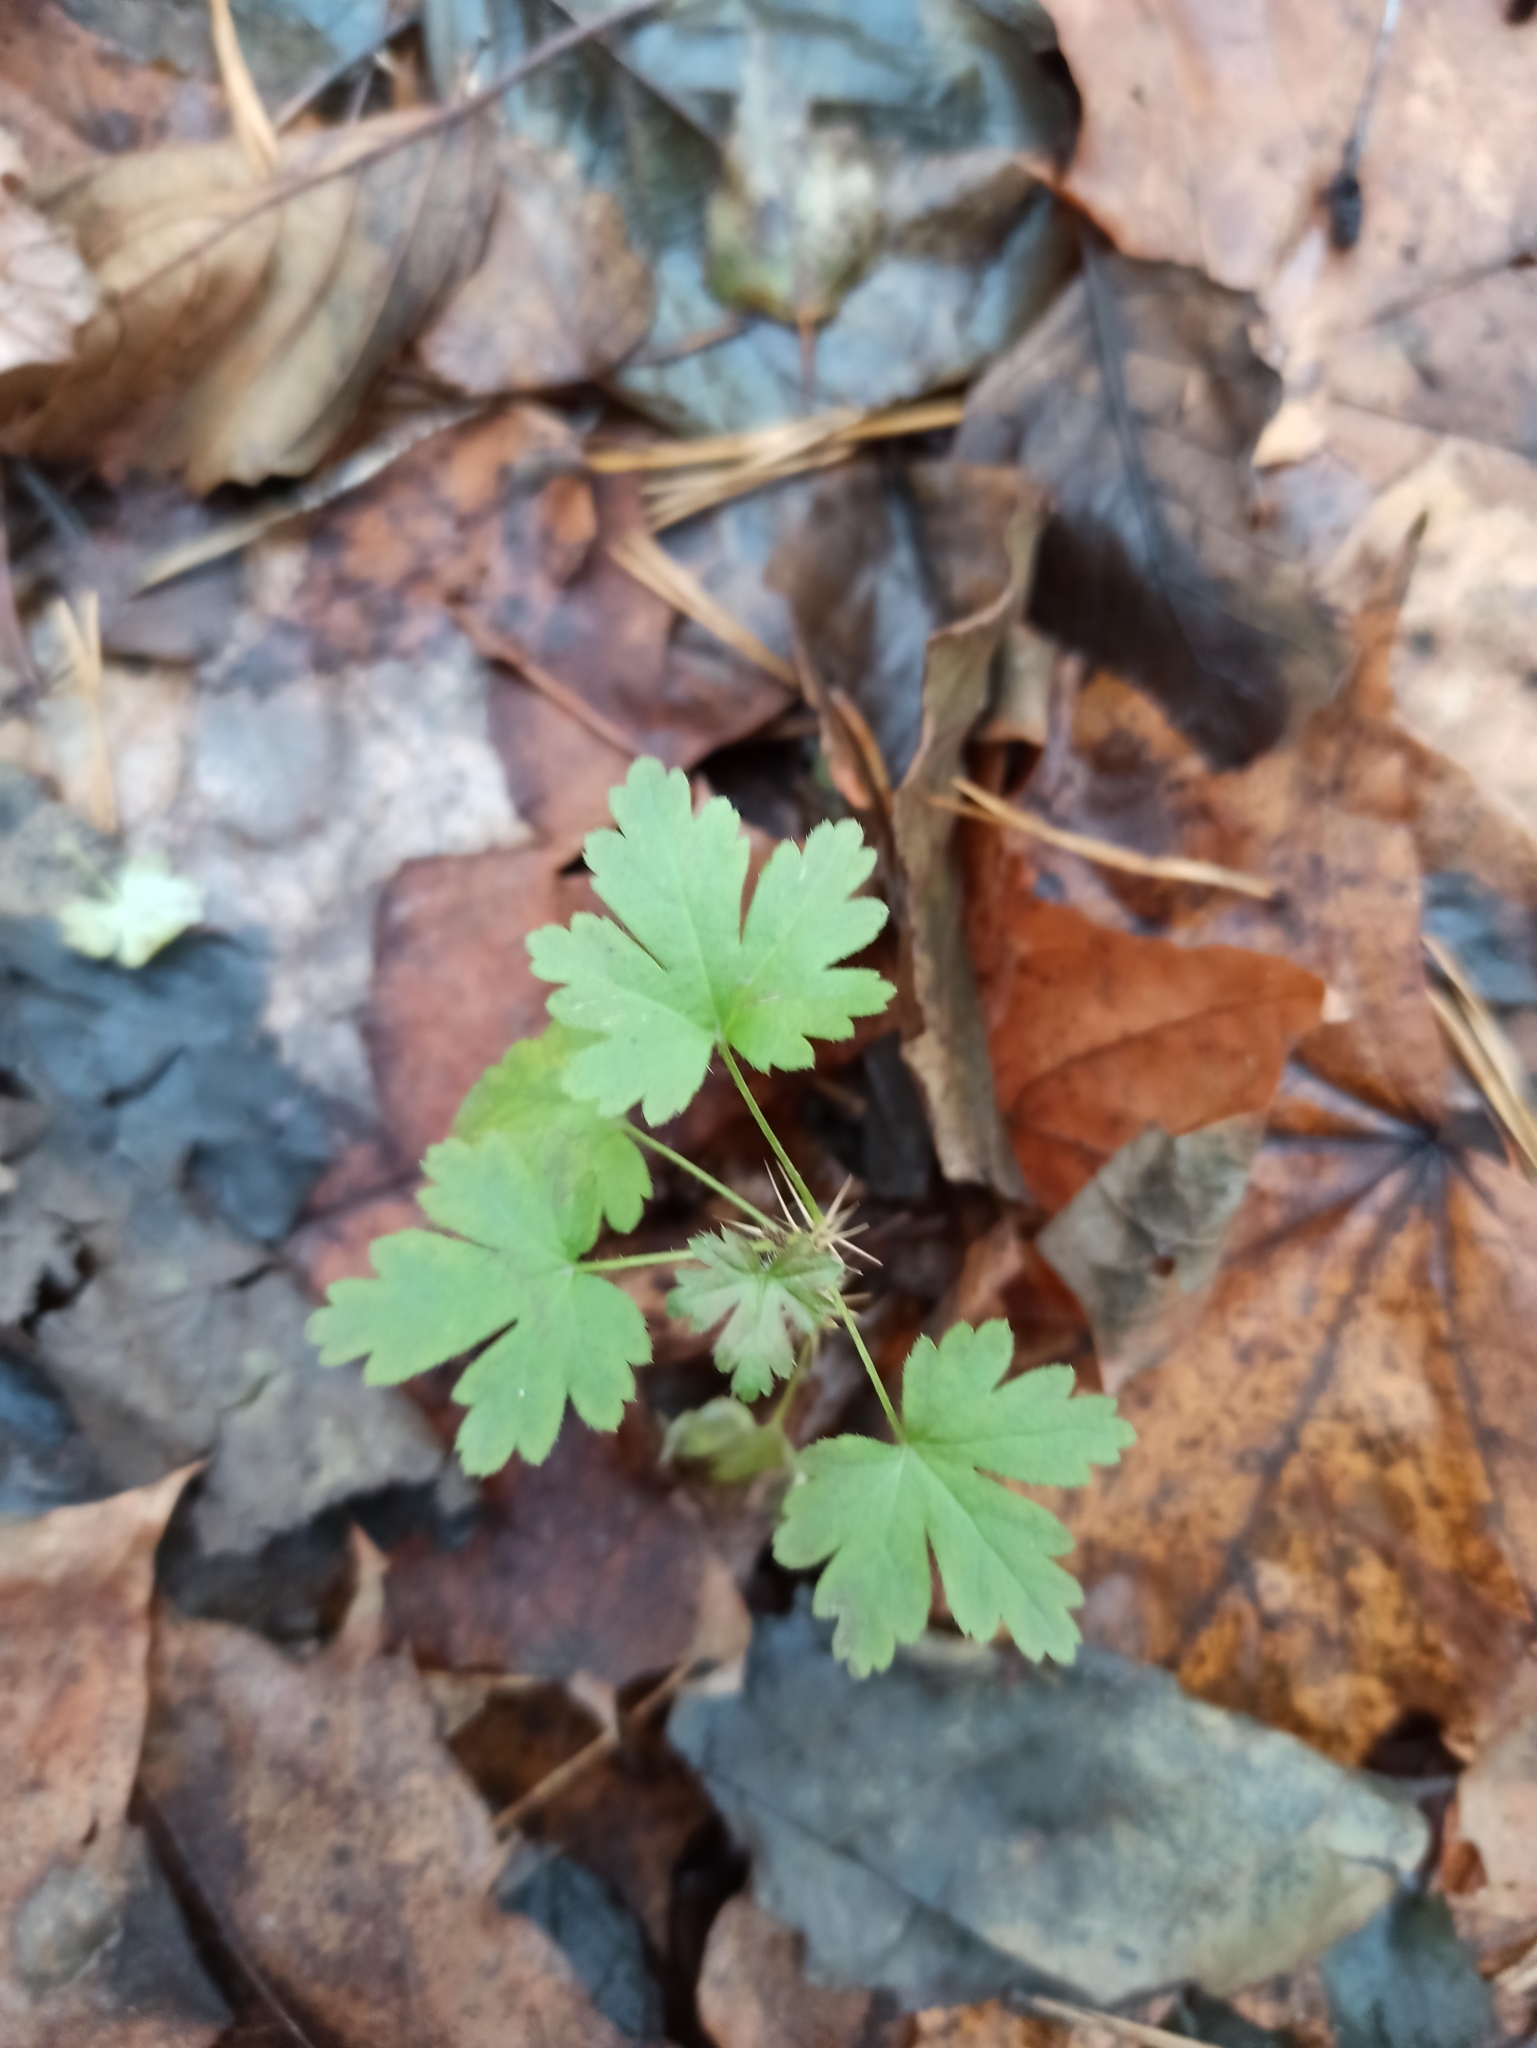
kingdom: Plantae
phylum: Tracheophyta
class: Magnoliopsida
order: Saxifragales
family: Grossulariaceae
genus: Ribes
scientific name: Ribes uva-crispa
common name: Gooseberry
